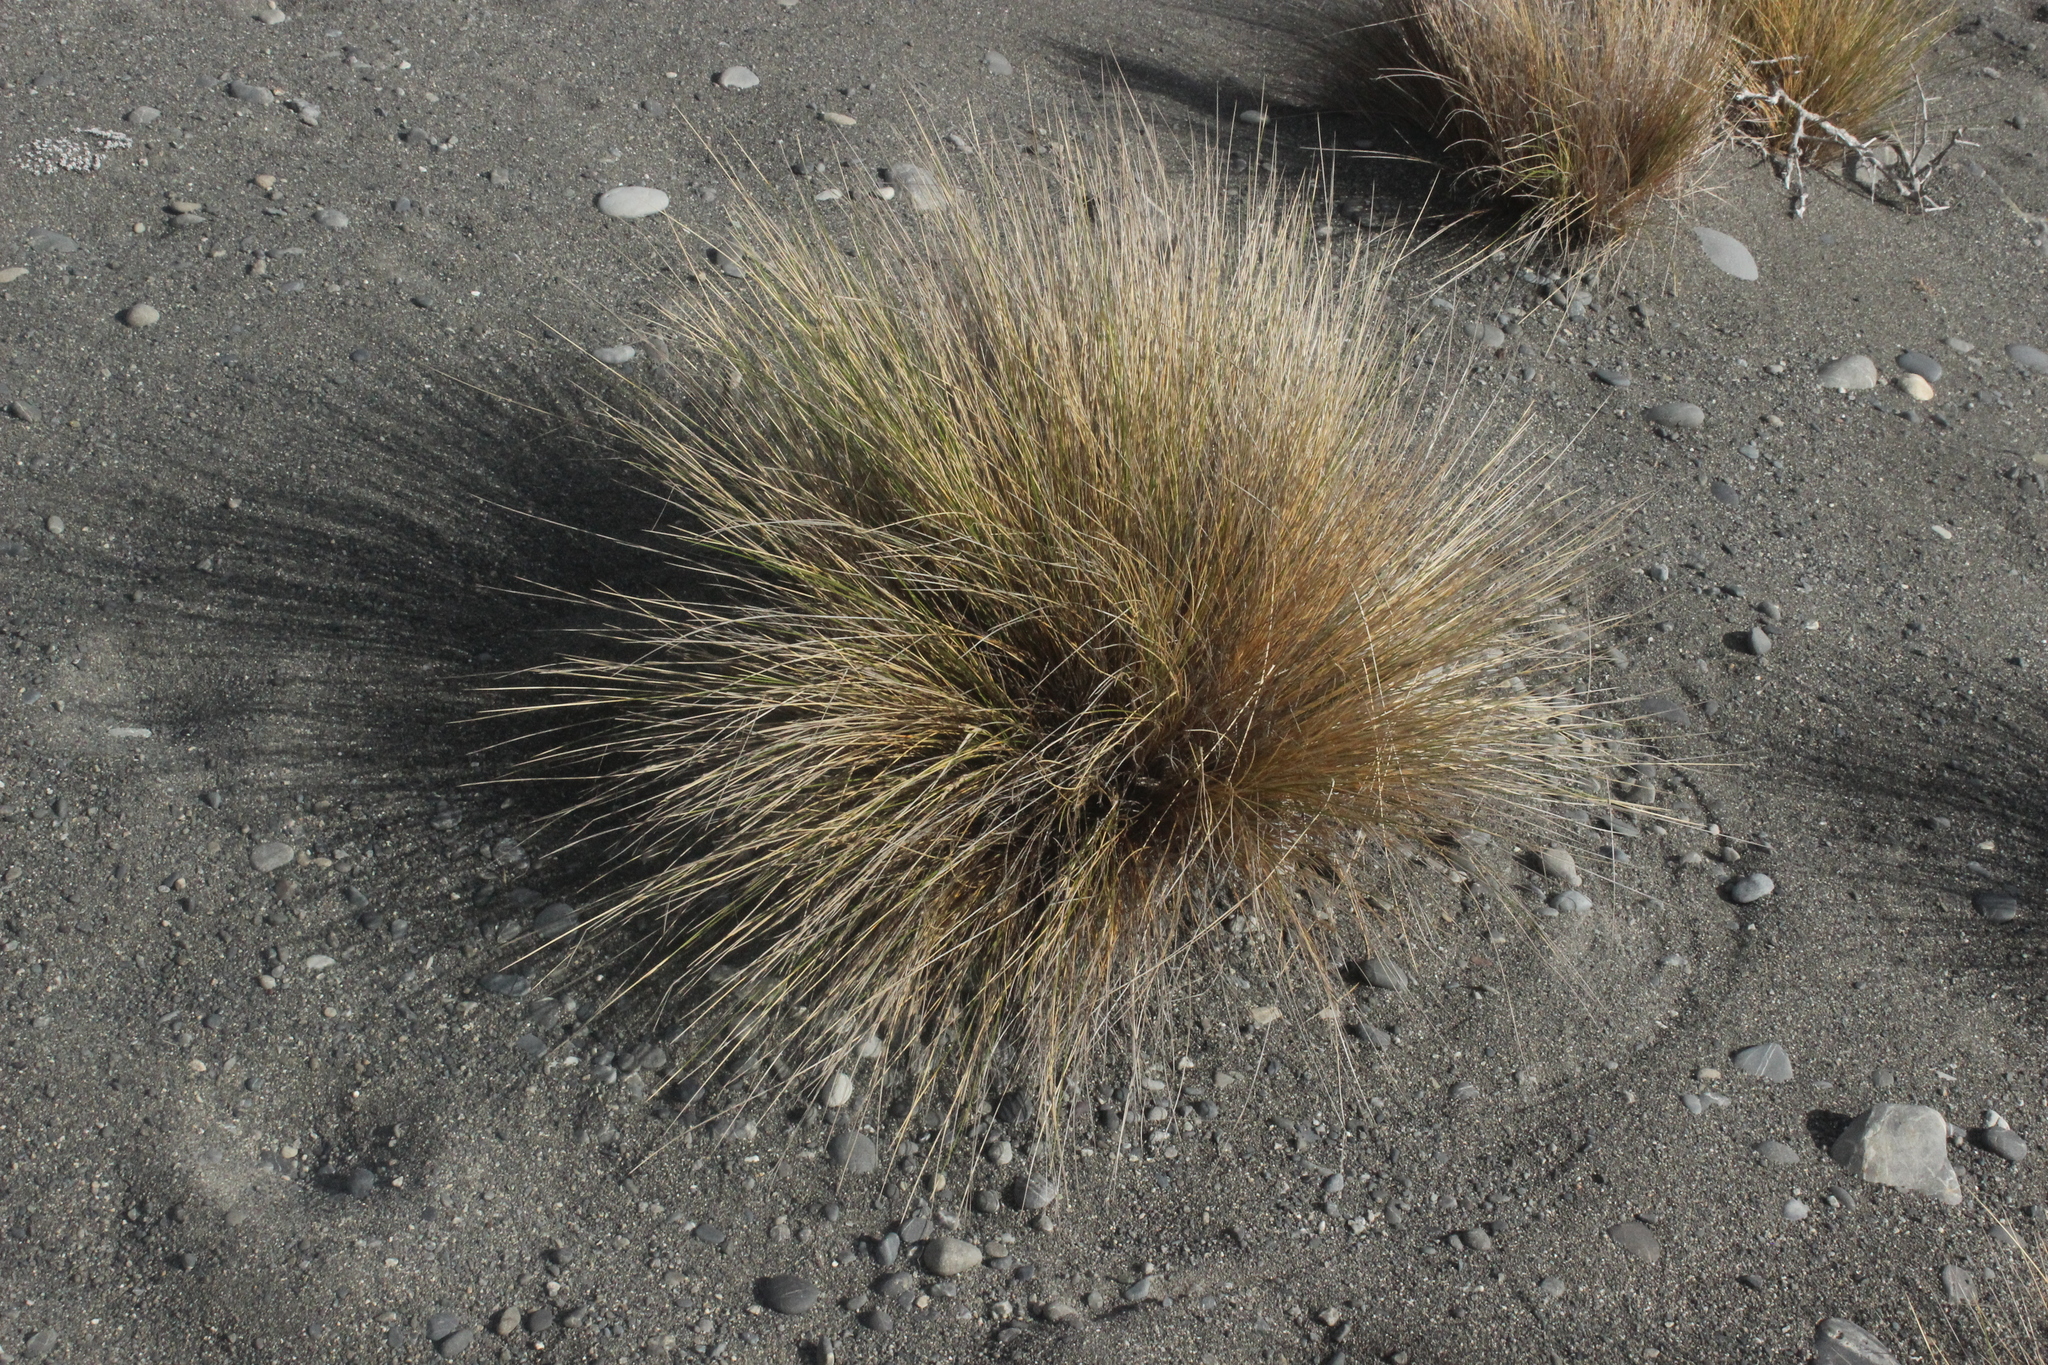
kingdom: Plantae
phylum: Tracheophyta
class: Liliopsida
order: Poales
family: Poaceae
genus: Poa
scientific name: Poa cita
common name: Silver tussock
